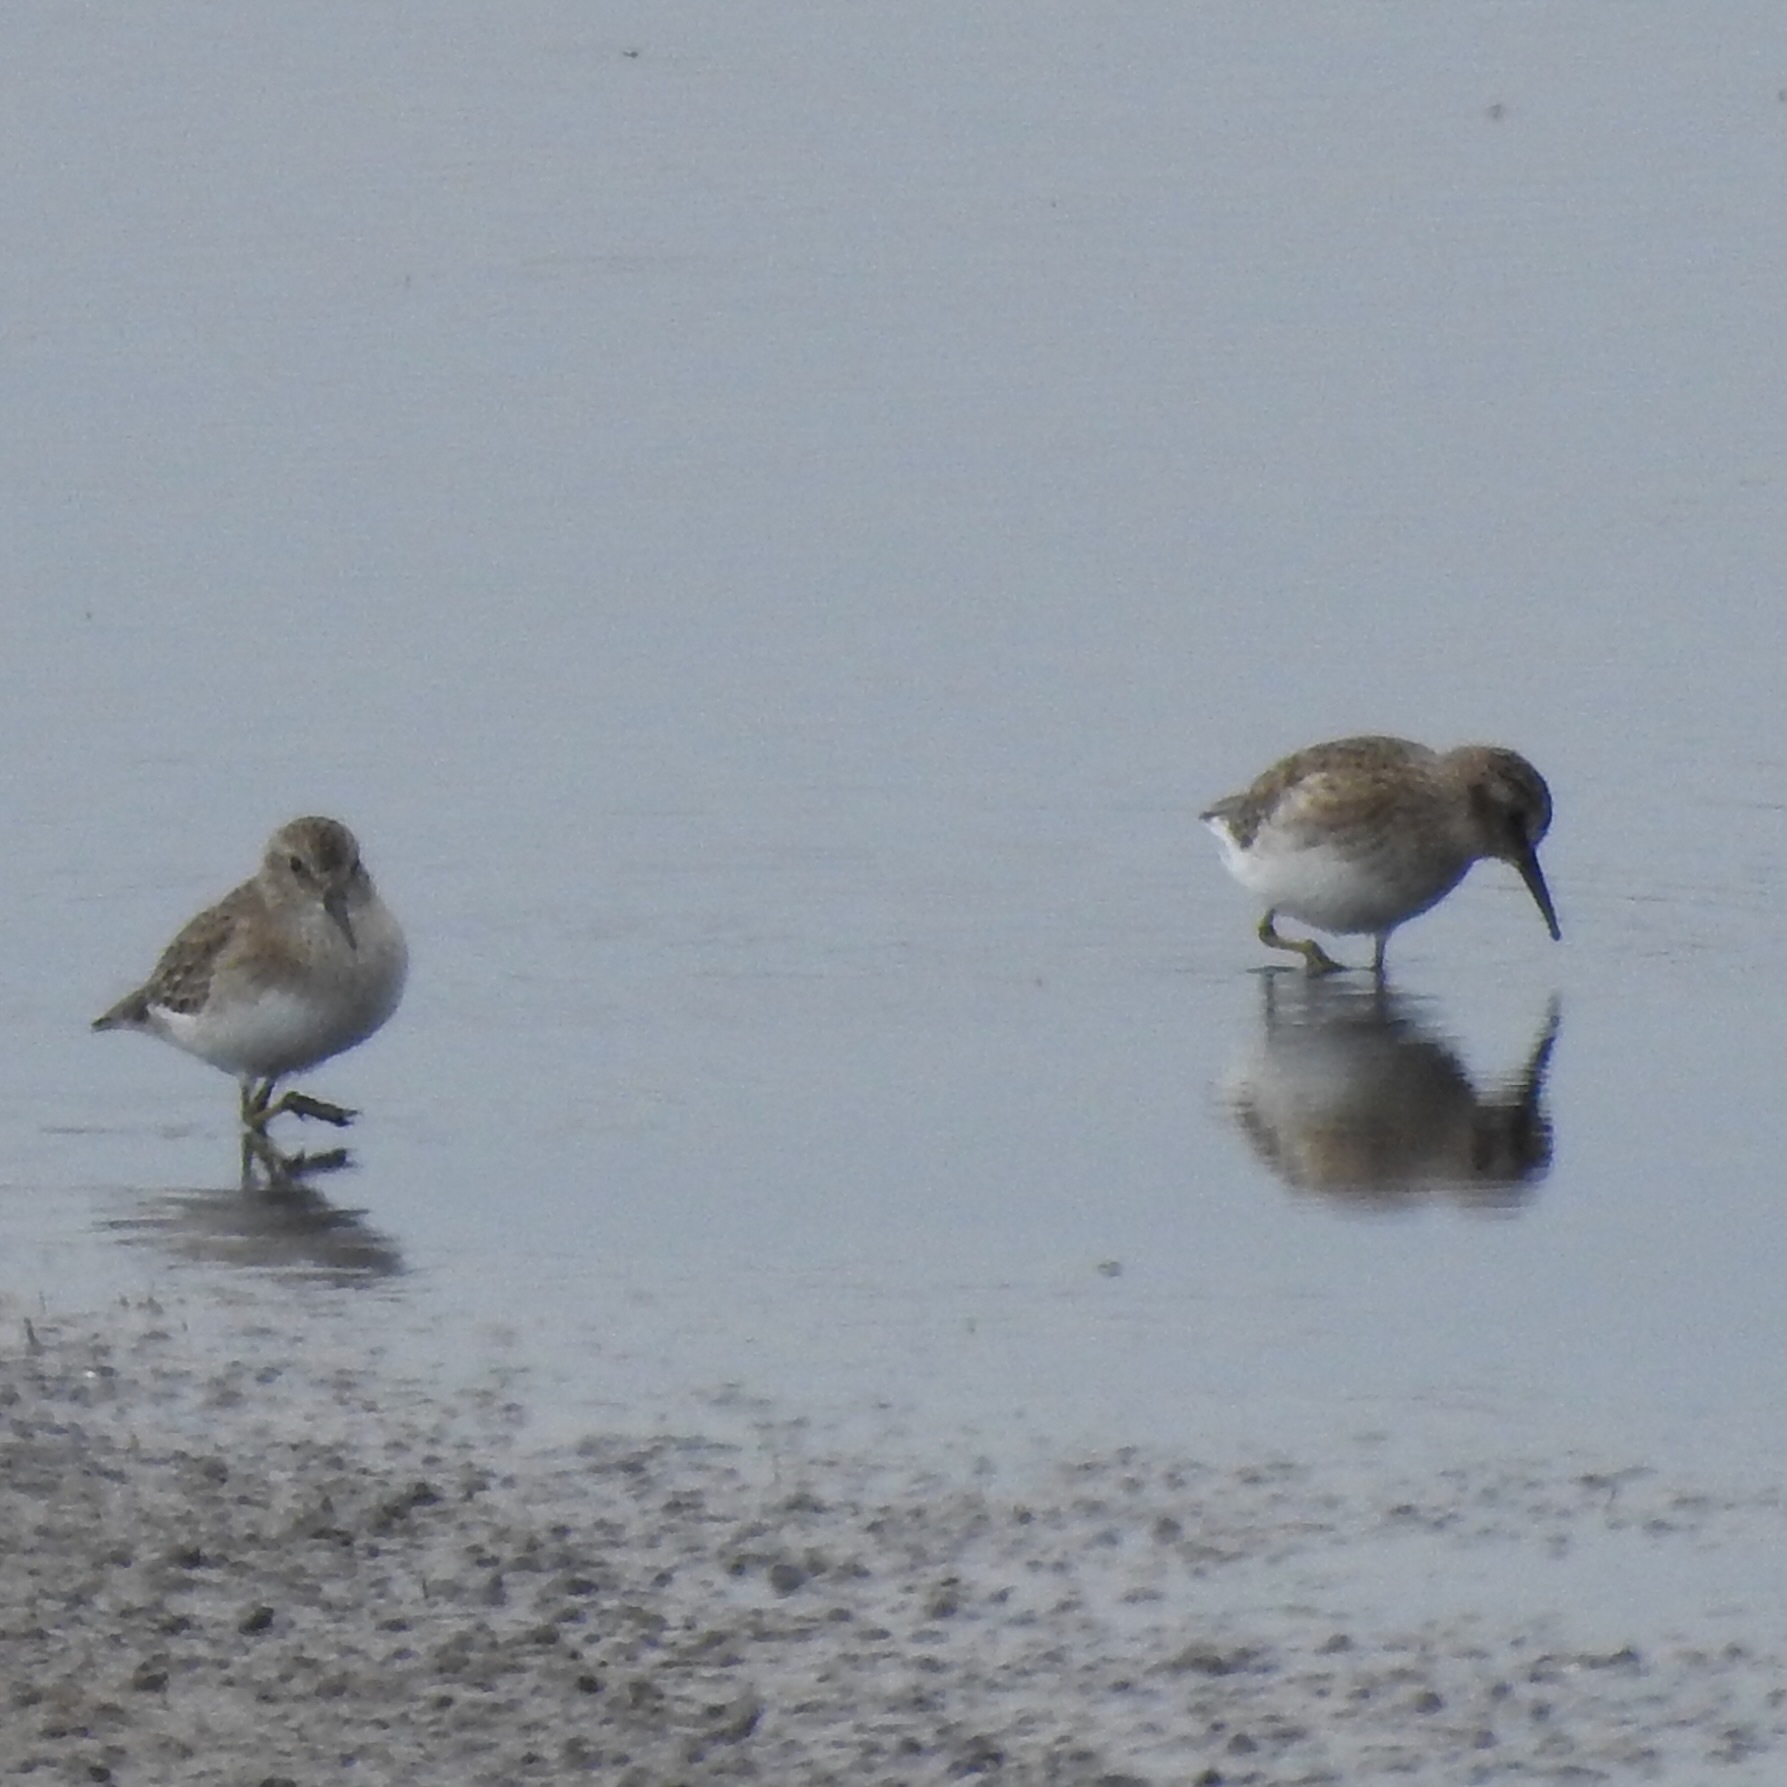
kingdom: Animalia
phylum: Chordata
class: Aves
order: Charadriiformes
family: Scolopacidae
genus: Calidris
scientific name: Calidris minutilla
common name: Least sandpiper
